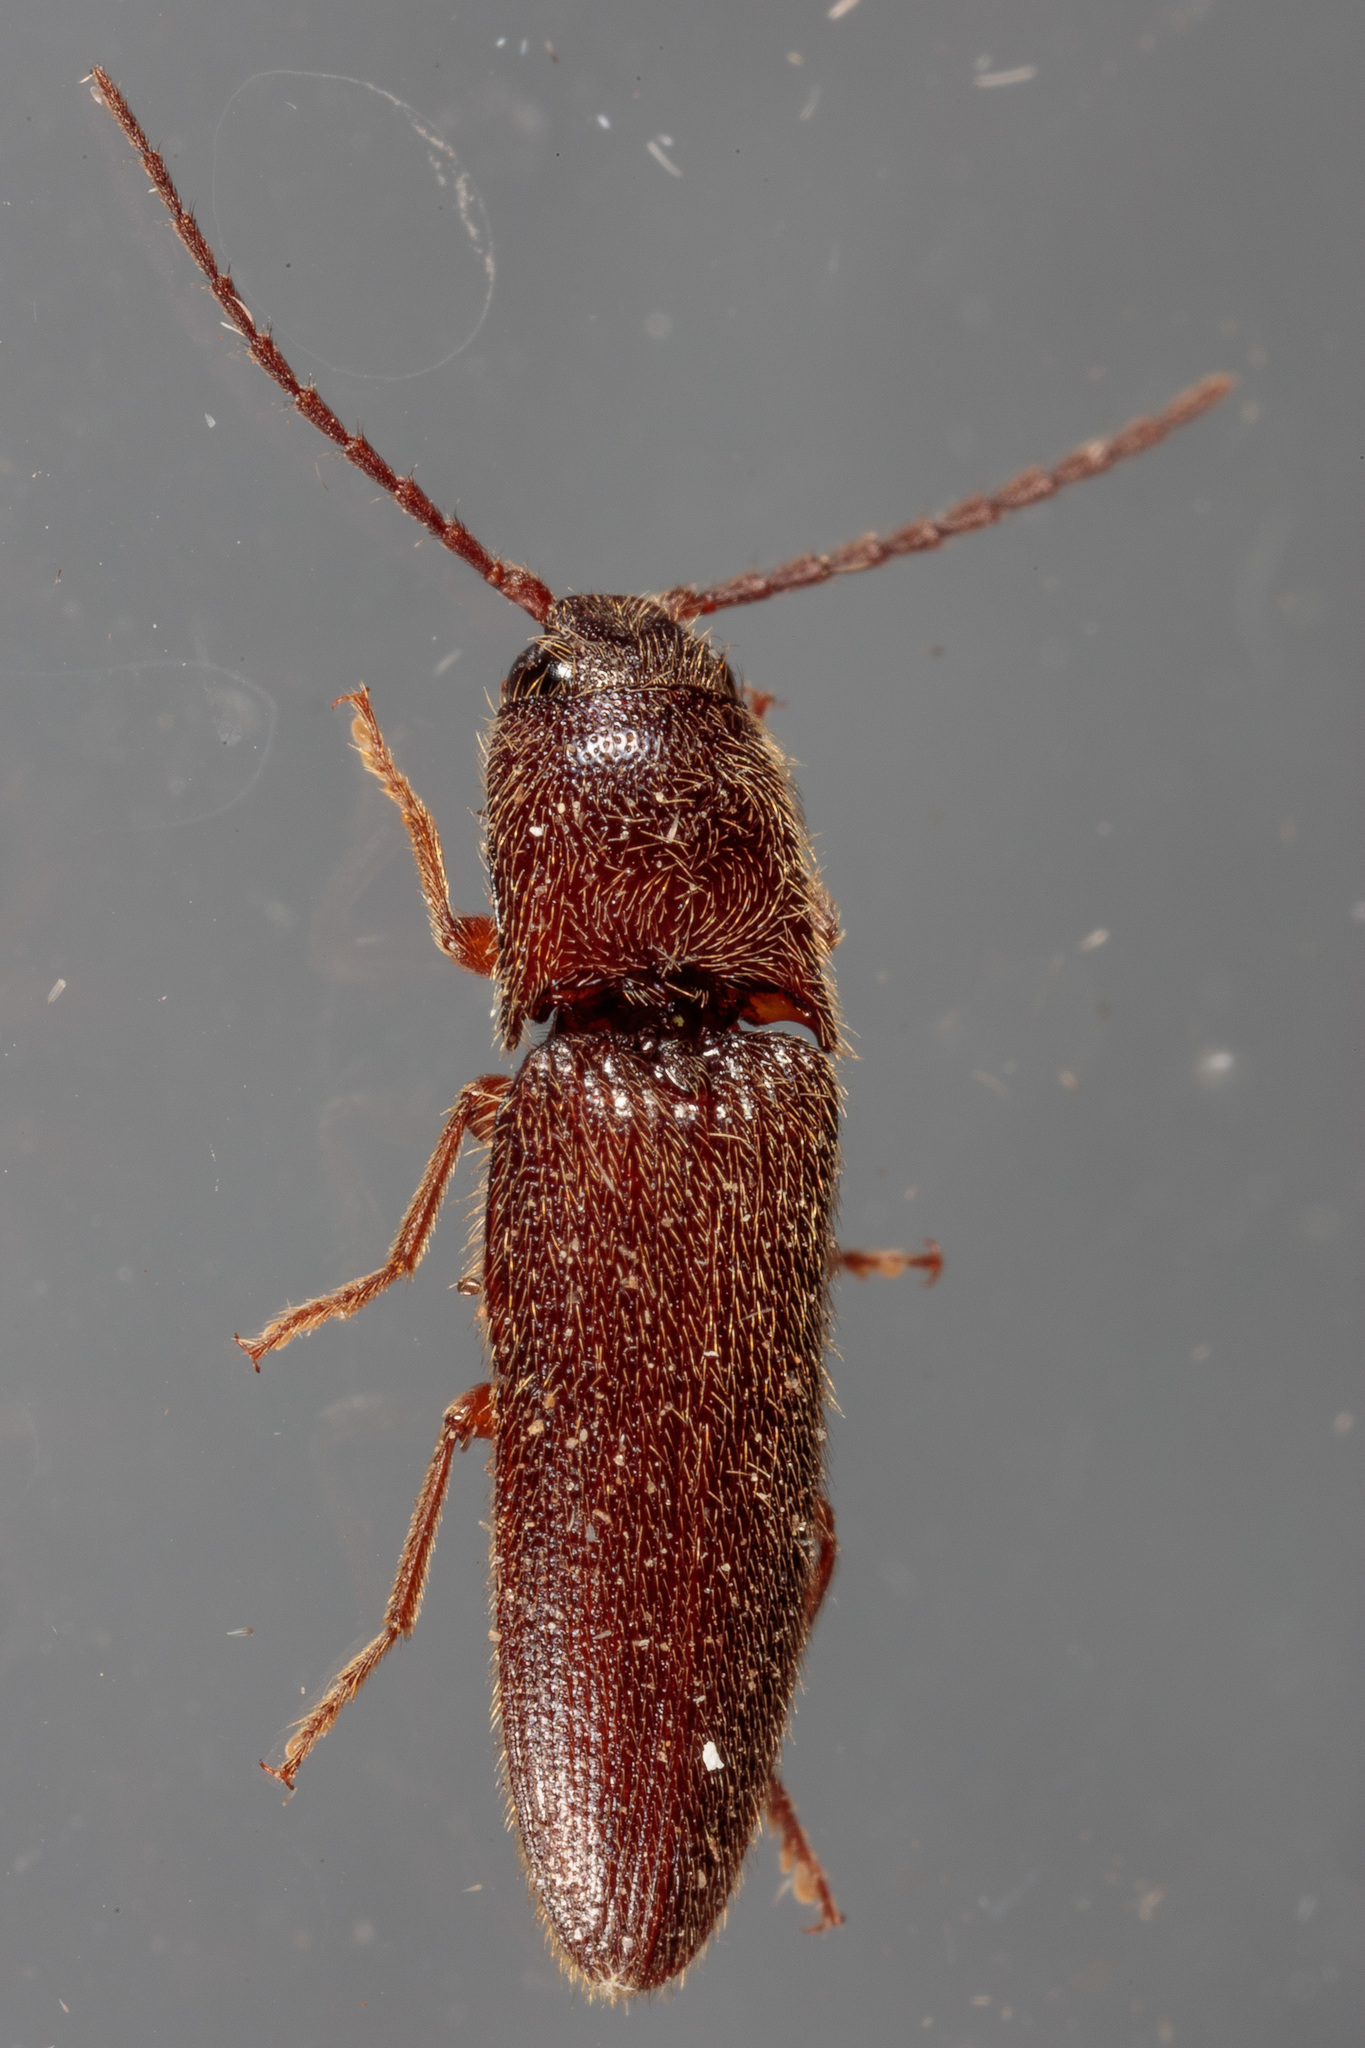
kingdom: Animalia
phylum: Arthropoda
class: Insecta
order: Coleoptera
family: Elateridae
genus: Dipropus
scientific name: Dipropus
